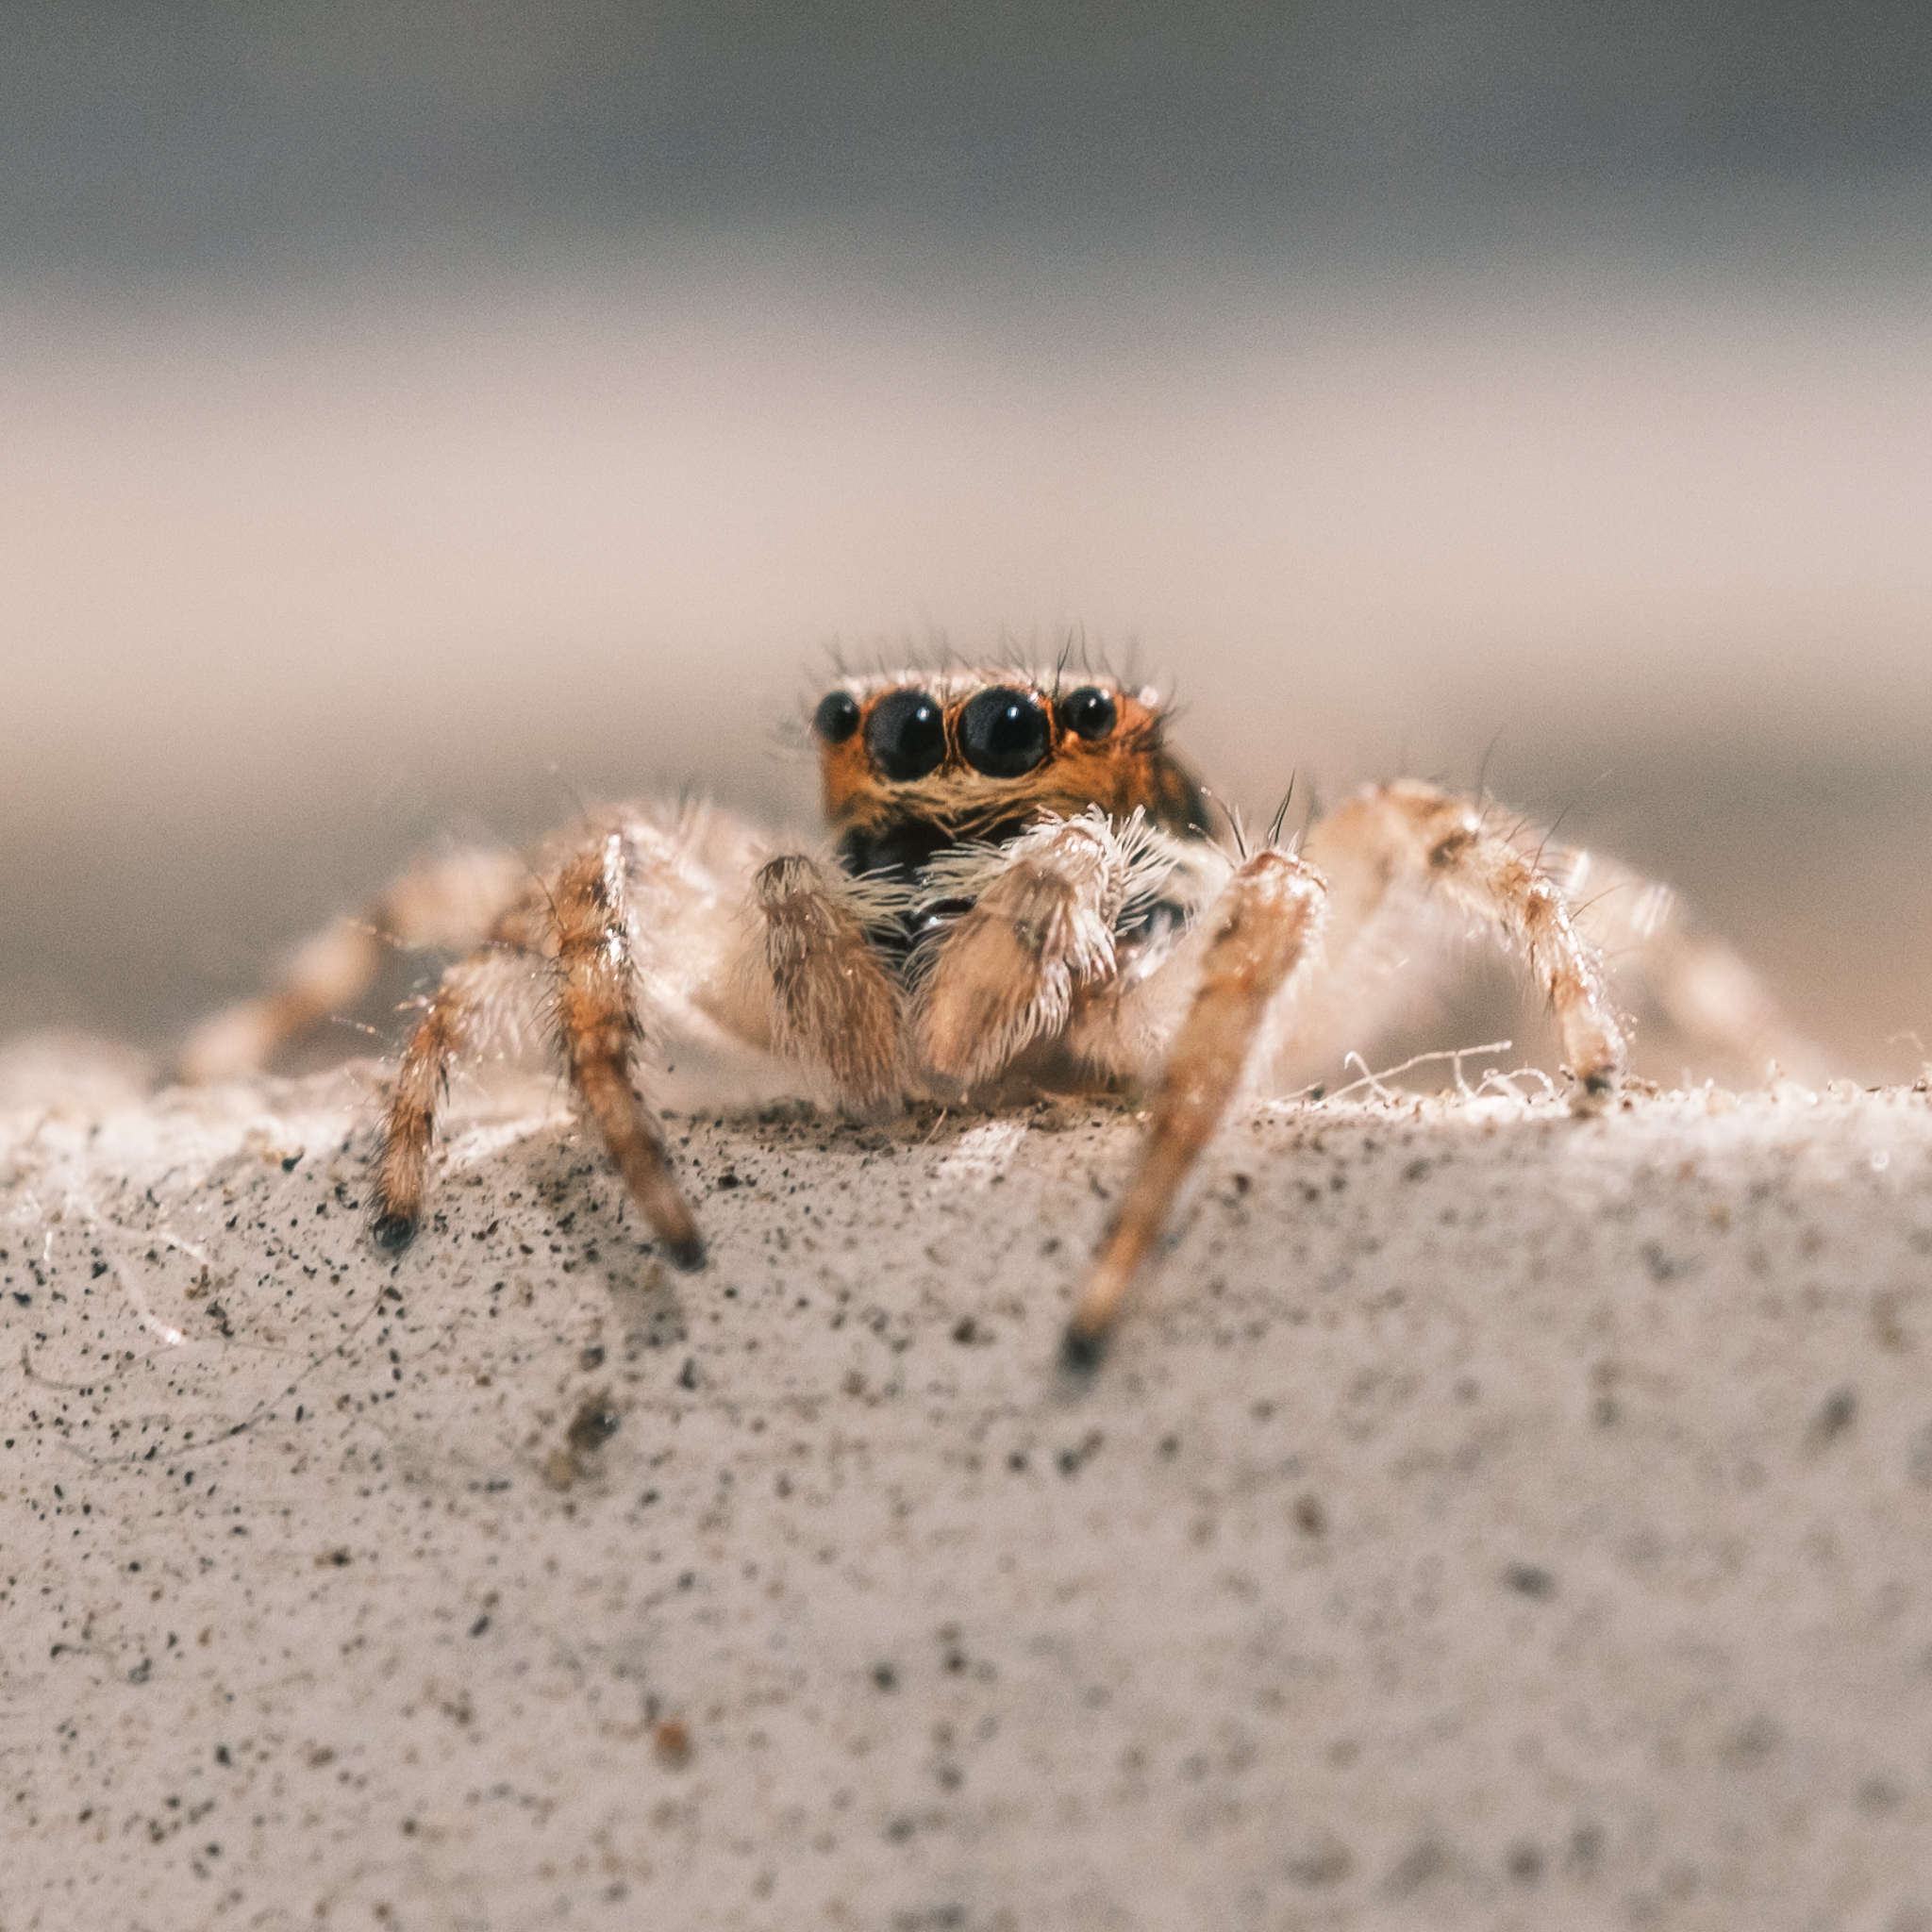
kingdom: Animalia
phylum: Arthropoda
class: Arachnida
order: Araneae
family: Salticidae
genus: Menemerus
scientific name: Menemerus bivittatus
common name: Gray wall jumper
